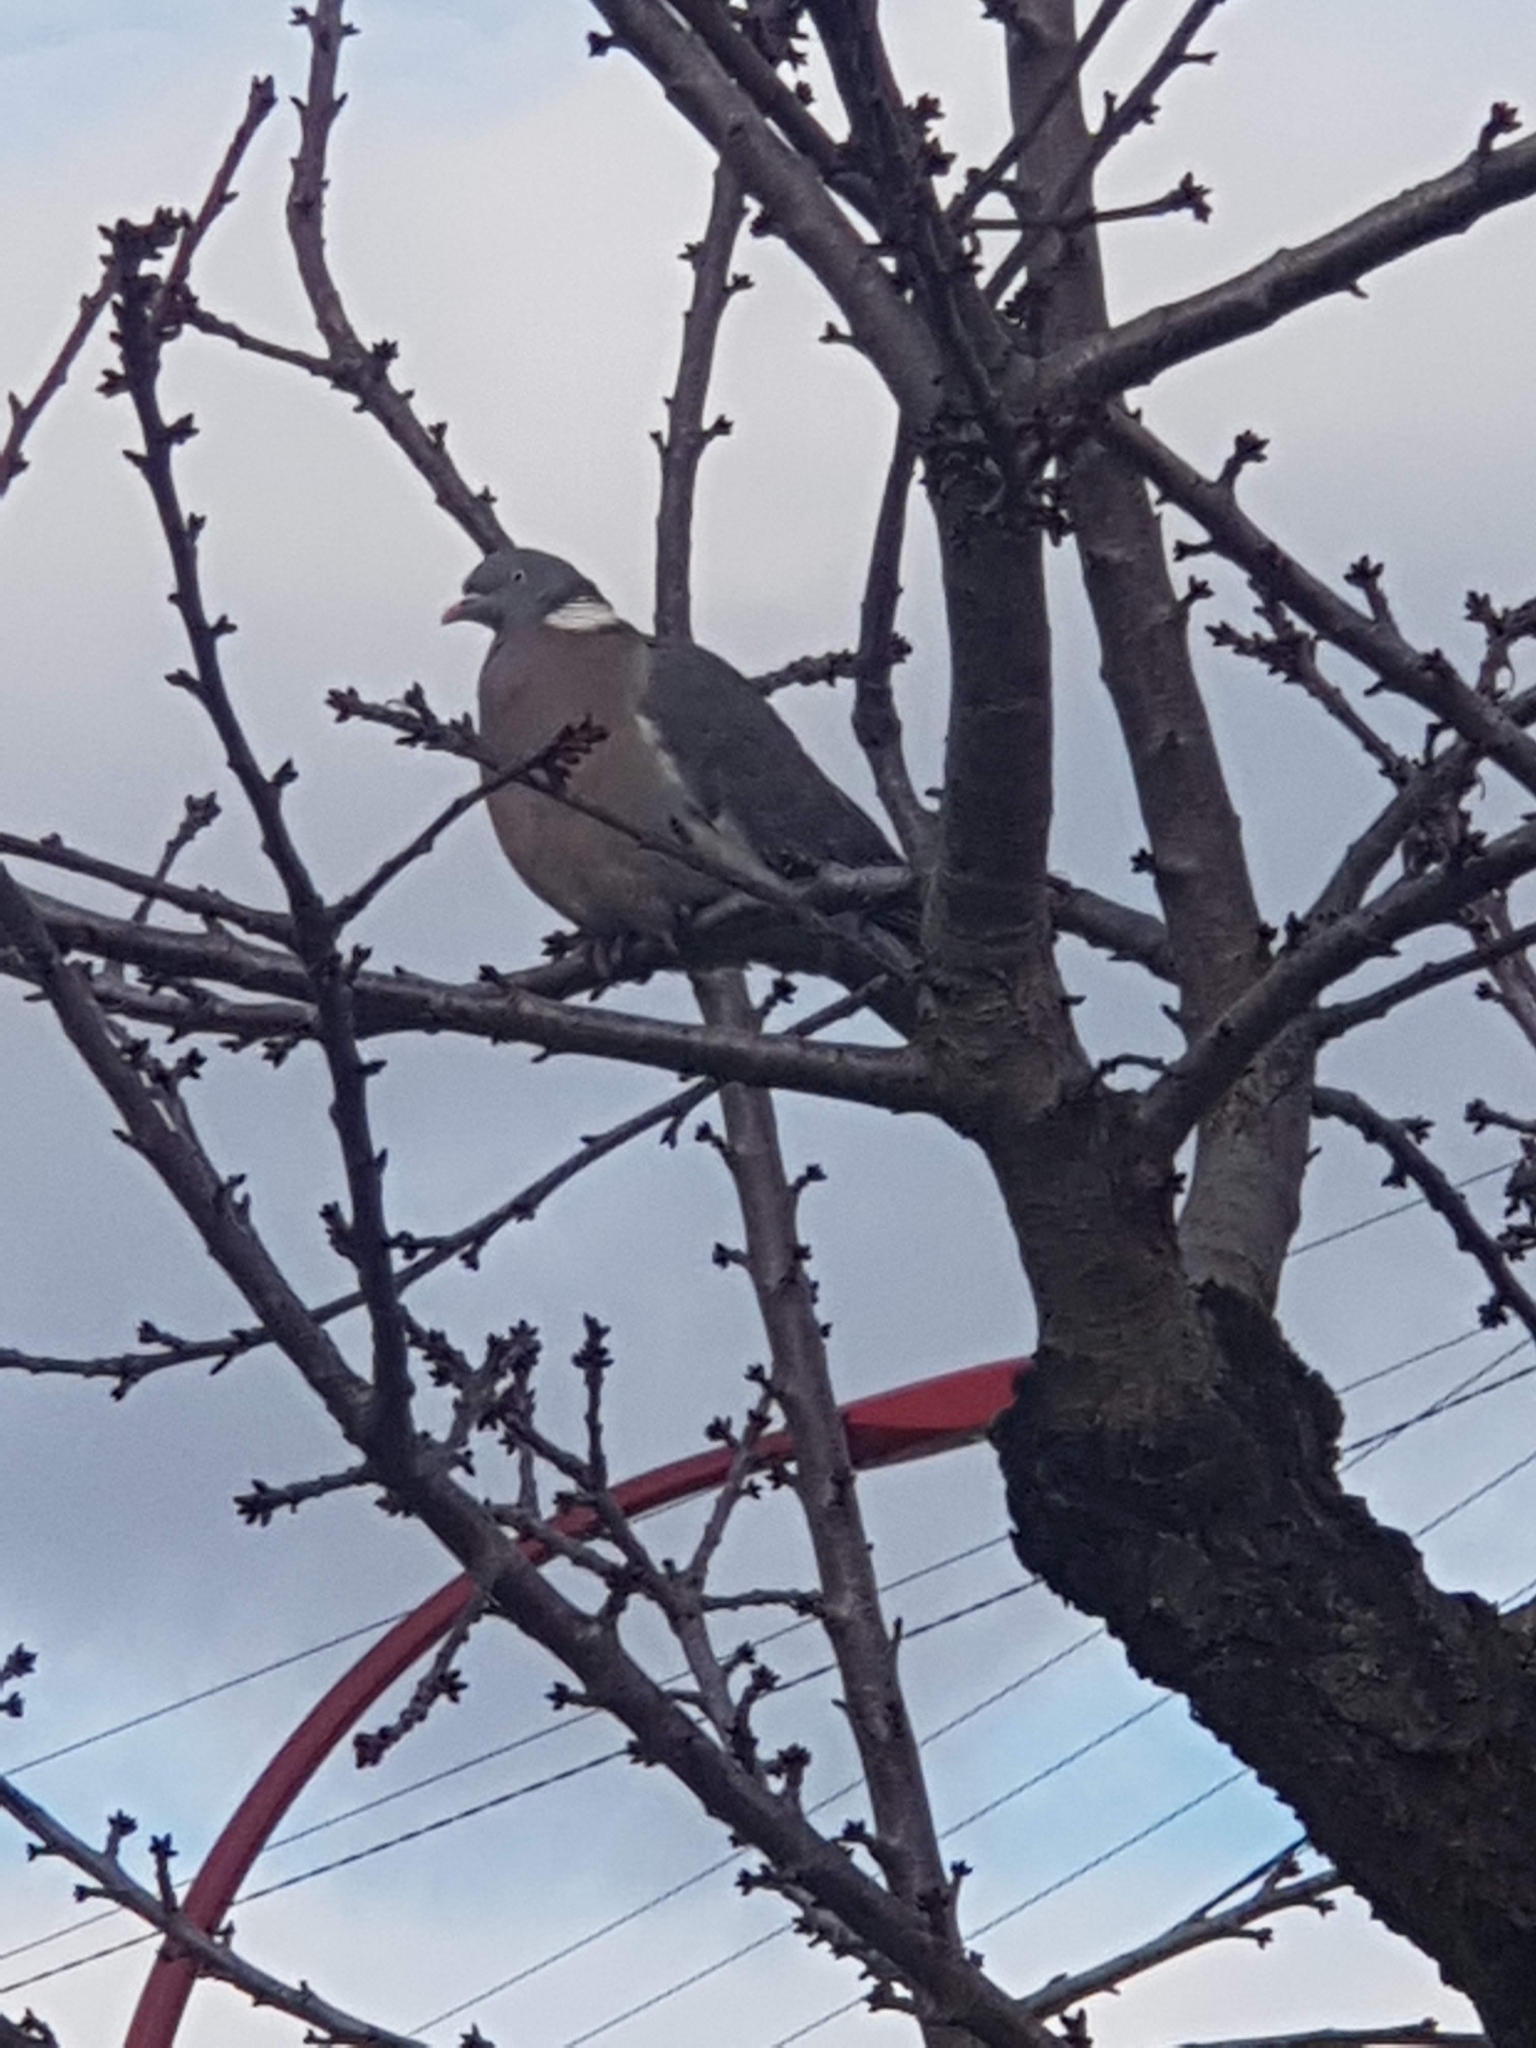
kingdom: Animalia
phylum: Chordata
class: Aves
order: Columbiformes
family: Columbidae
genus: Columba
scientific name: Columba palumbus
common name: Common wood pigeon
